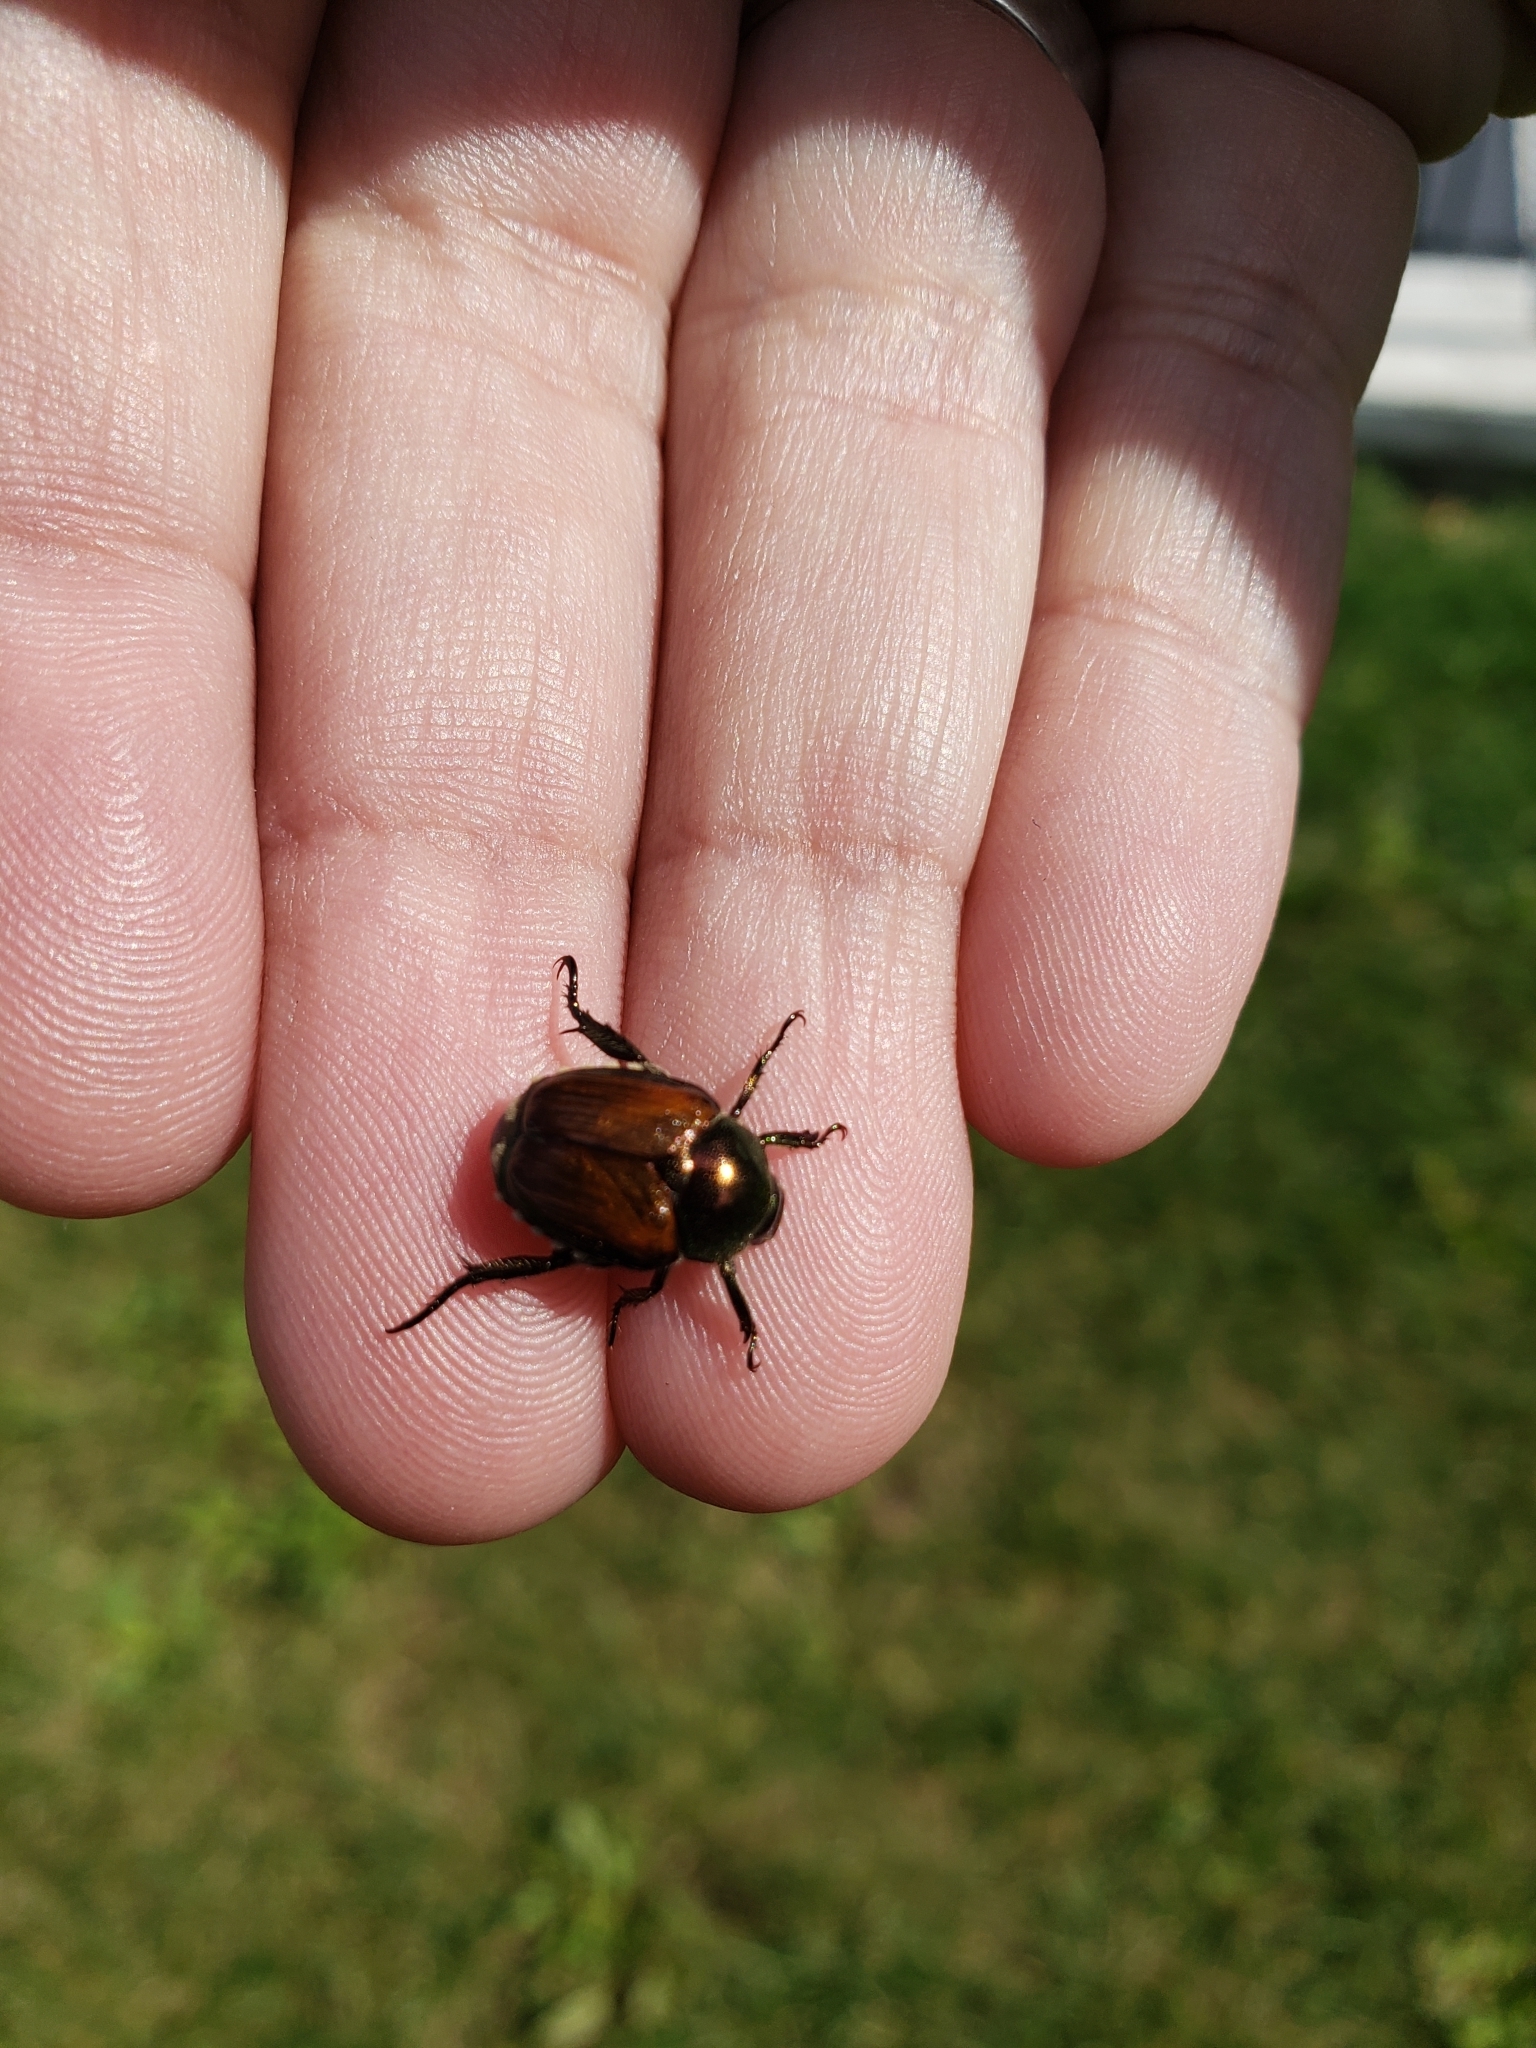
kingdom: Animalia
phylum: Arthropoda
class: Insecta
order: Coleoptera
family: Scarabaeidae
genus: Popillia
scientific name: Popillia japonica
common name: Japanese beetle
